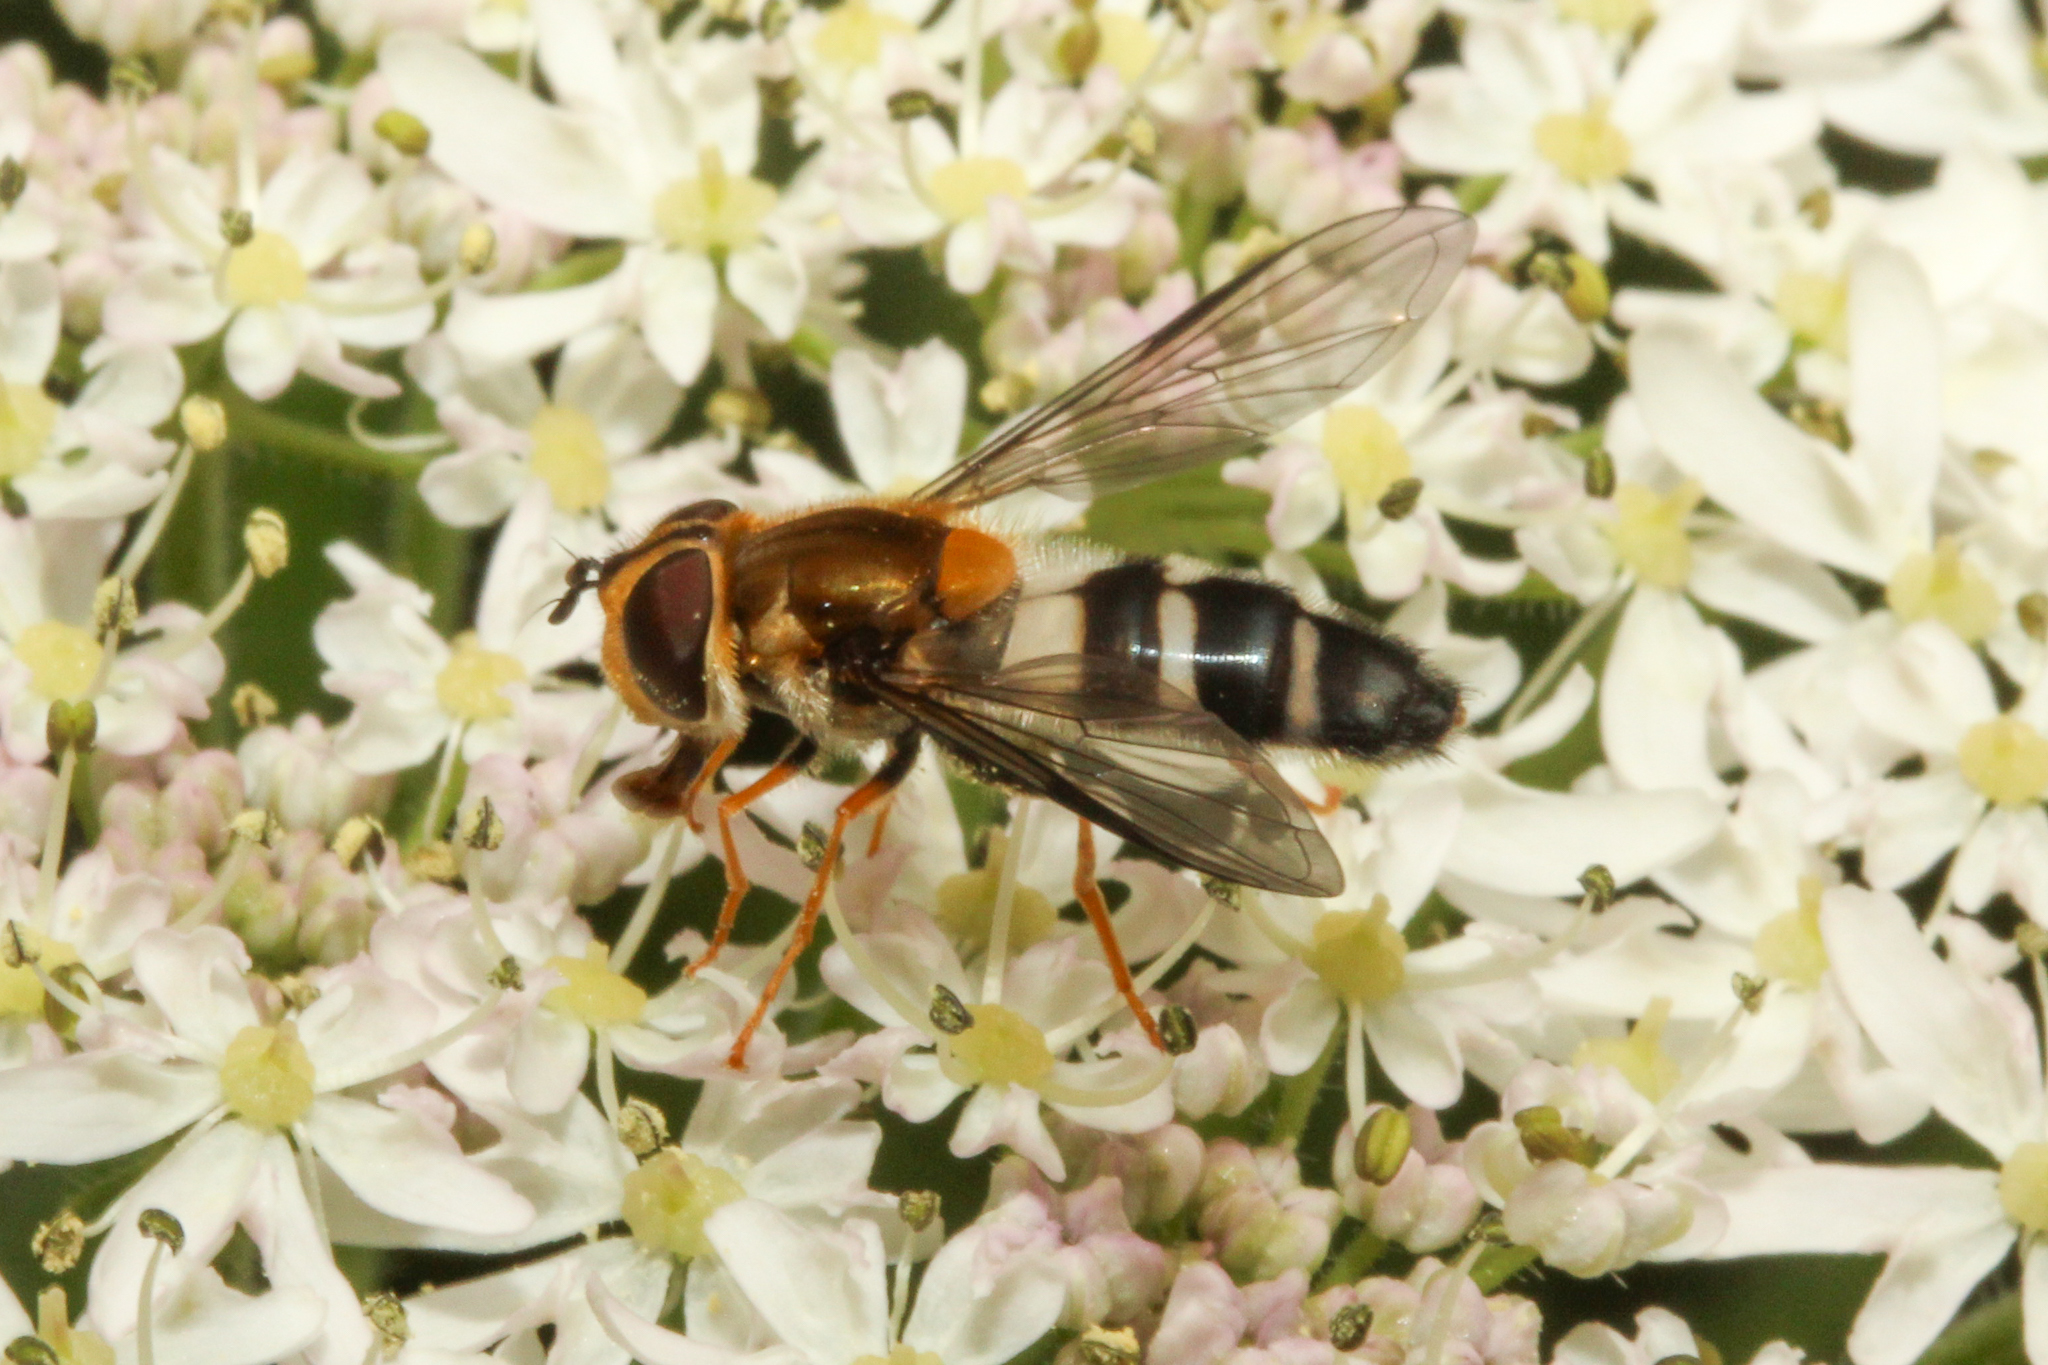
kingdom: Animalia
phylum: Arthropoda
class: Insecta
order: Diptera
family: Syrphidae
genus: Leucozona
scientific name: Leucozona glaucia
